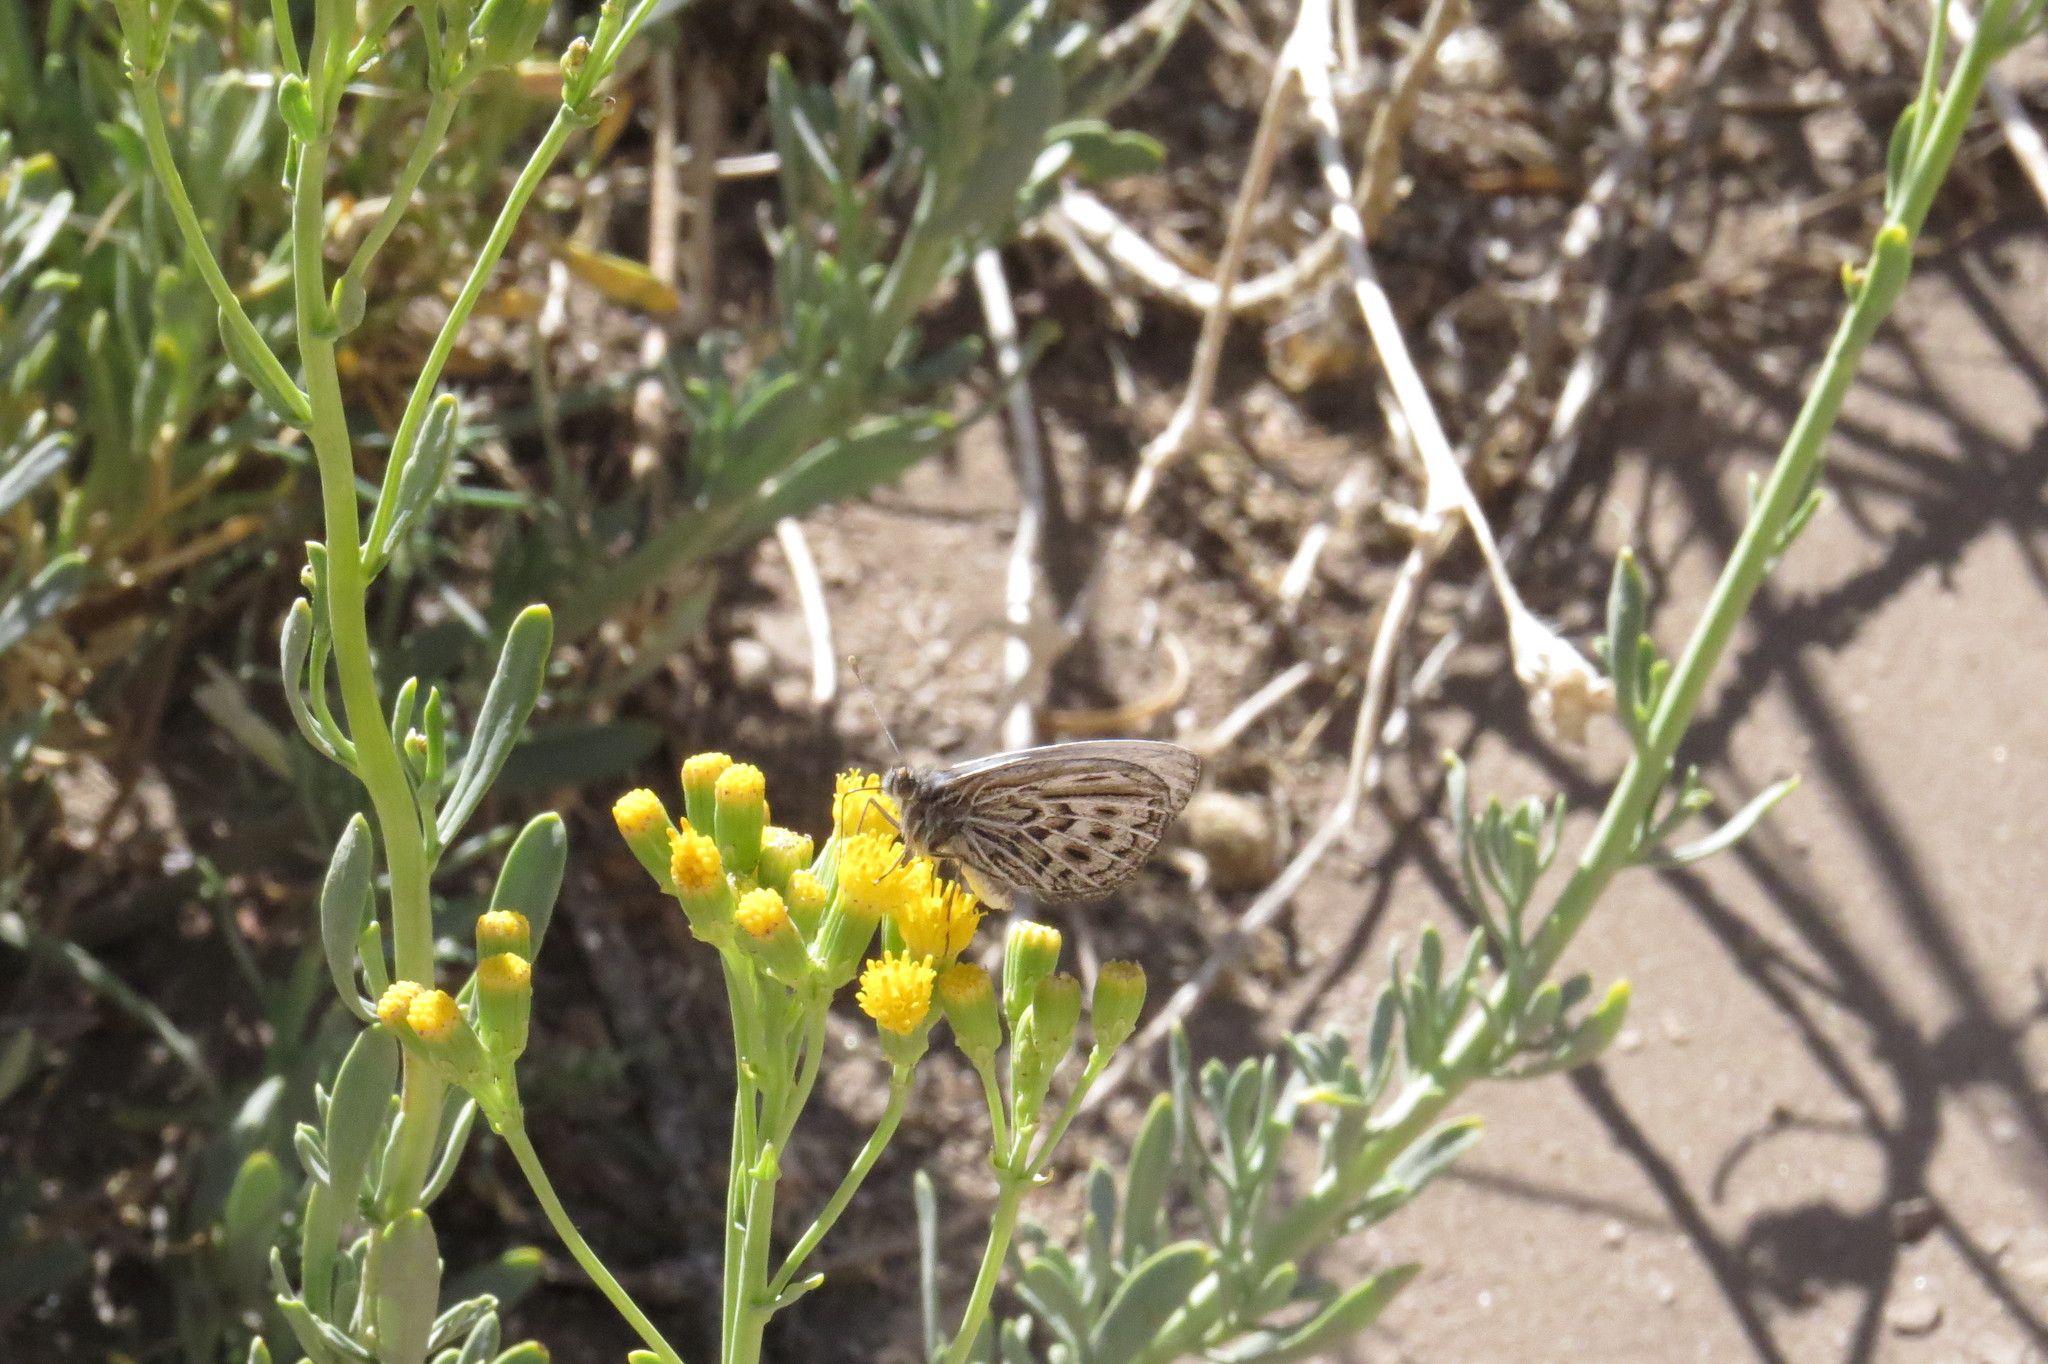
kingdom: Animalia
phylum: Arthropoda
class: Insecta
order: Lepidoptera
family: Nymphalidae
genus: Argyrophorus
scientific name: Argyrophorus argenteus
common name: Silver satyr
